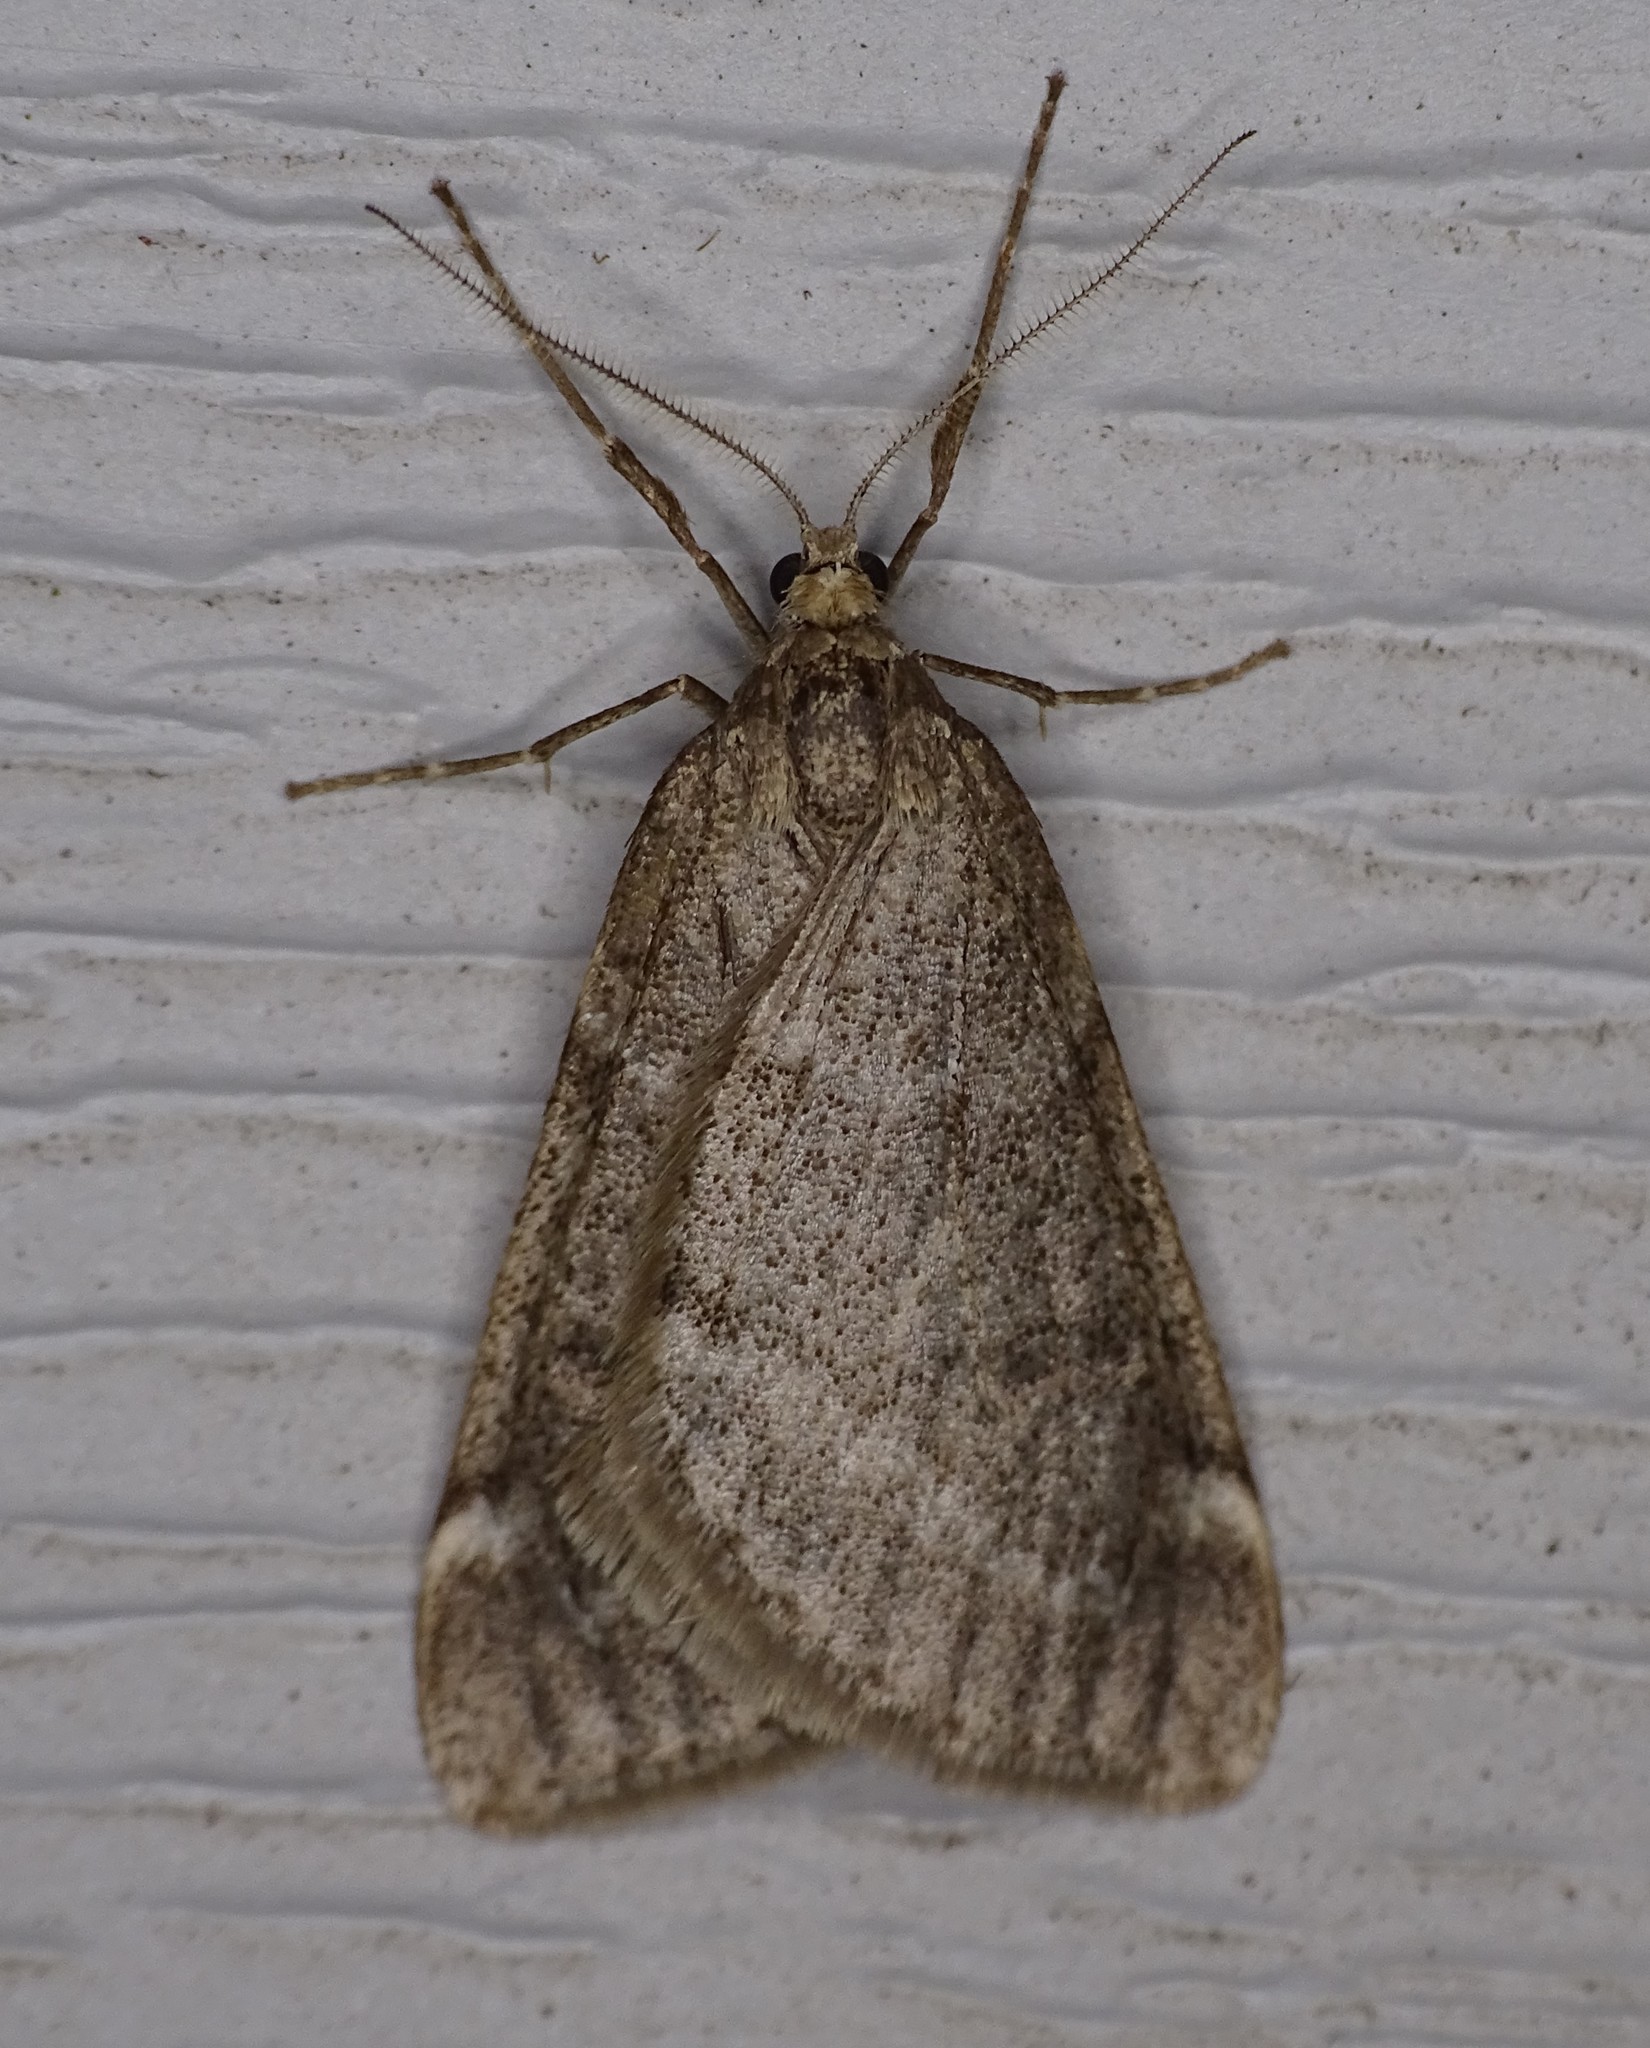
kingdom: Animalia
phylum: Arthropoda
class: Insecta
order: Lepidoptera
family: Geometridae
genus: Alsophila
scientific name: Alsophila pometaria
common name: Fall cankerworm
